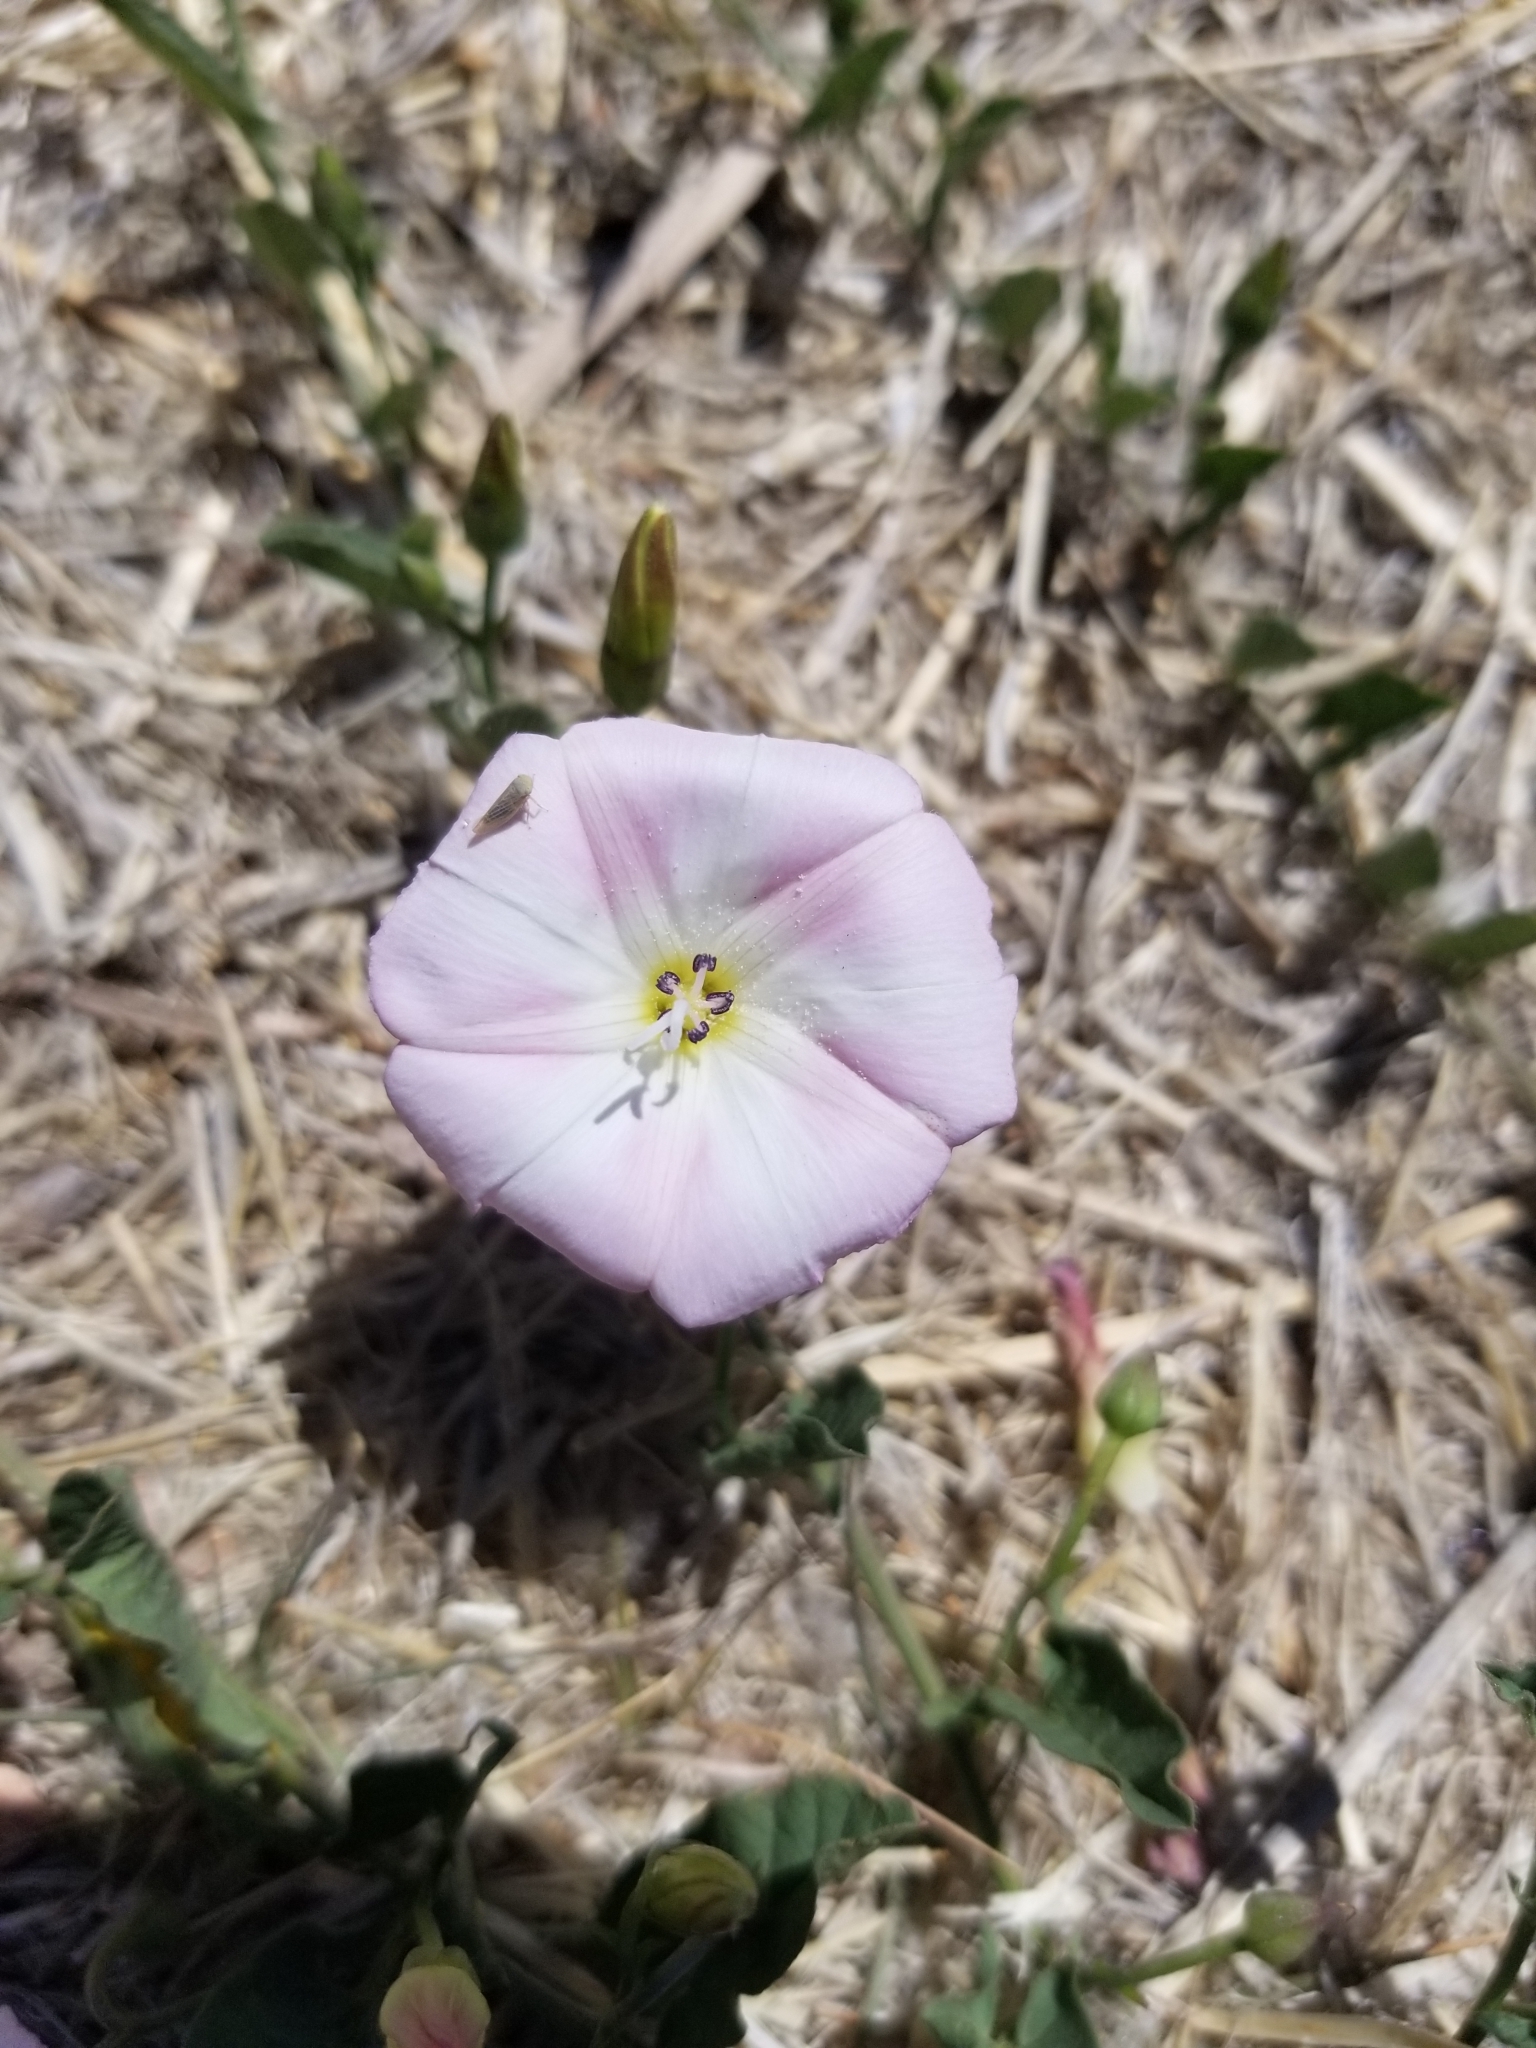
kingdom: Plantae
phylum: Tracheophyta
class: Magnoliopsida
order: Solanales
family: Convolvulaceae
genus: Convolvulus
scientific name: Convolvulus arvensis
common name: Field bindweed
